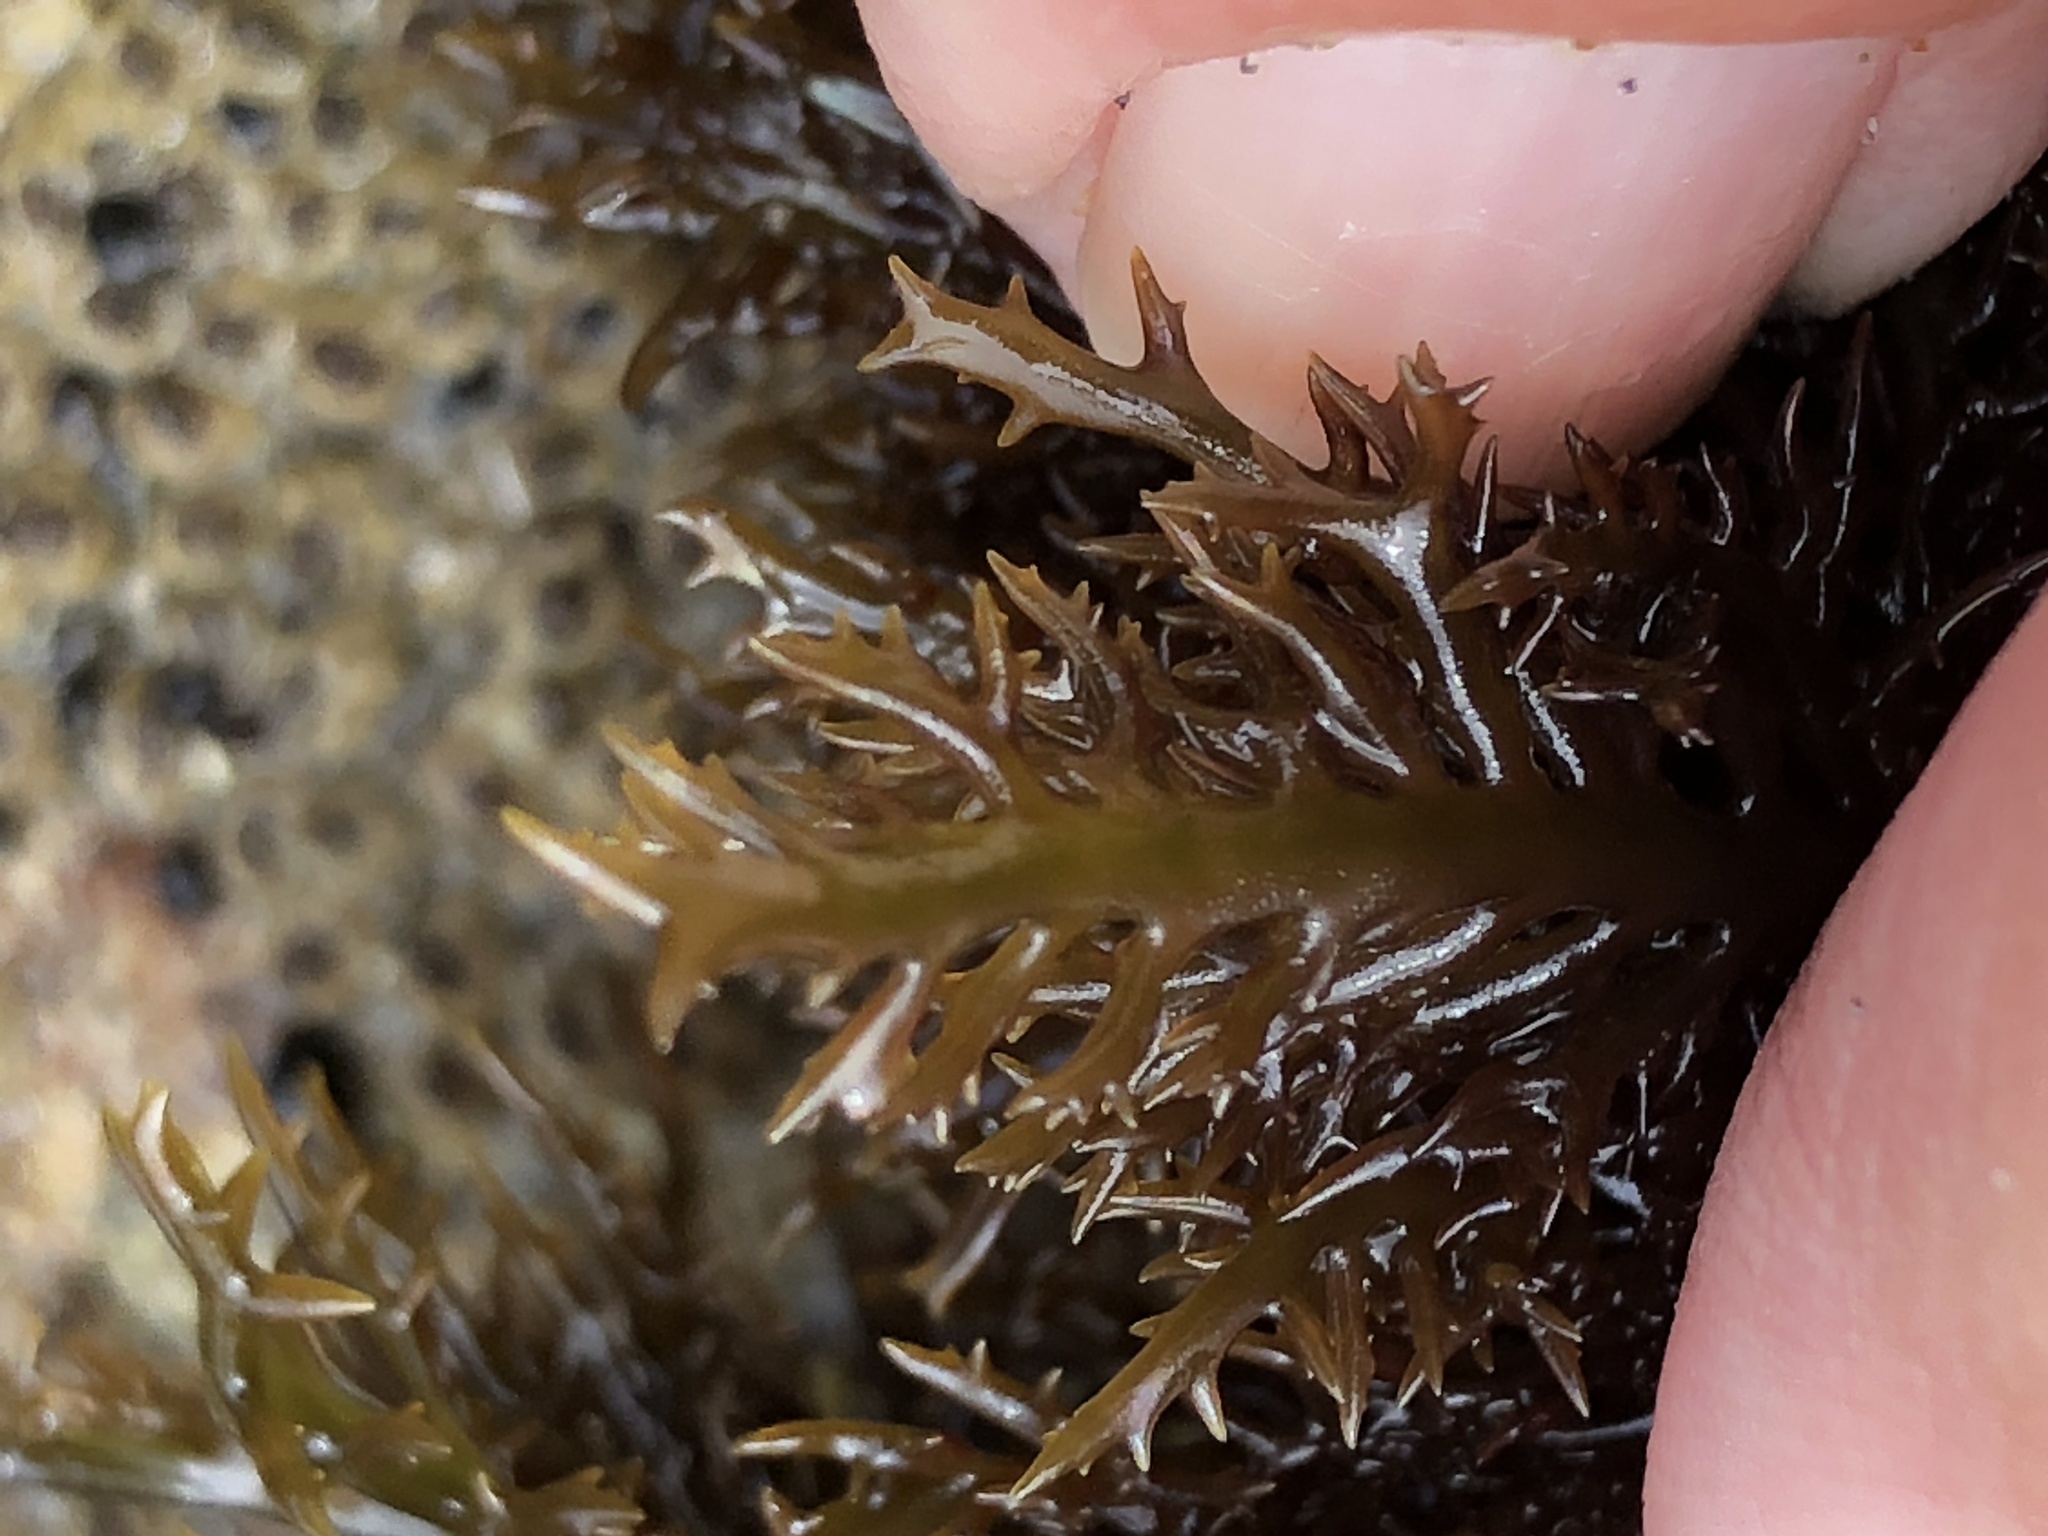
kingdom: Plantae
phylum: Rhodophyta
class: Florideophyceae
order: Gigartinales
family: Gigartinaceae
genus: Chondracanthus
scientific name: Chondracanthus canaliculatus
